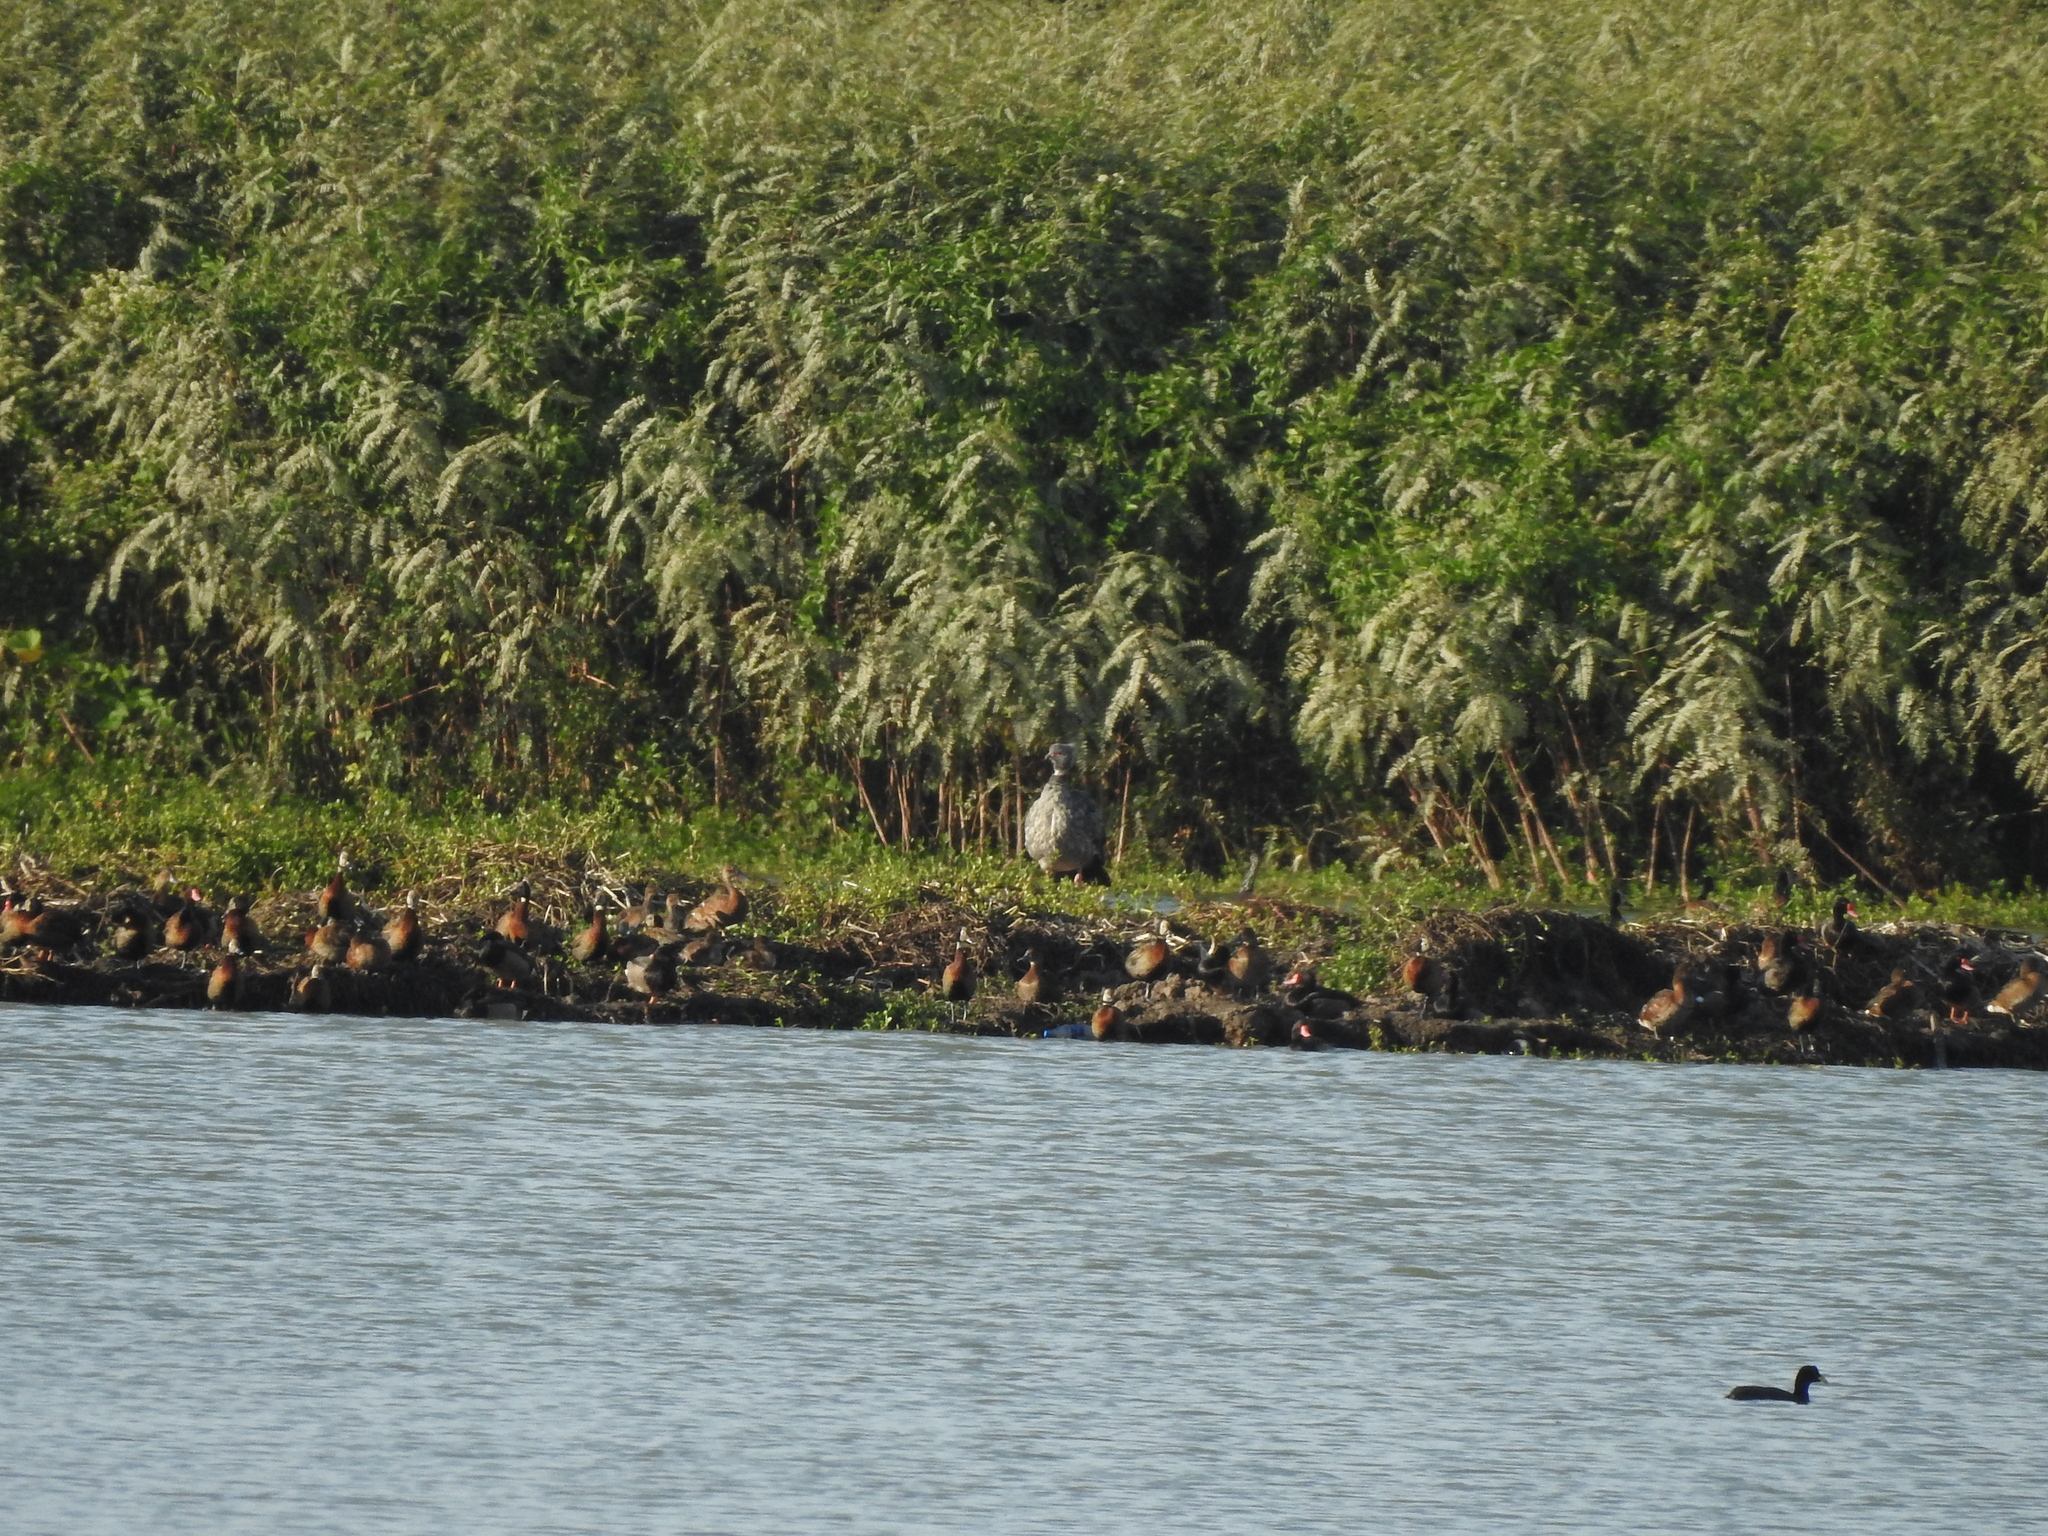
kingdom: Animalia
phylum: Chordata
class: Aves
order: Anseriformes
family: Anhimidae
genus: Chauna
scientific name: Chauna torquata
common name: Southern screamer
